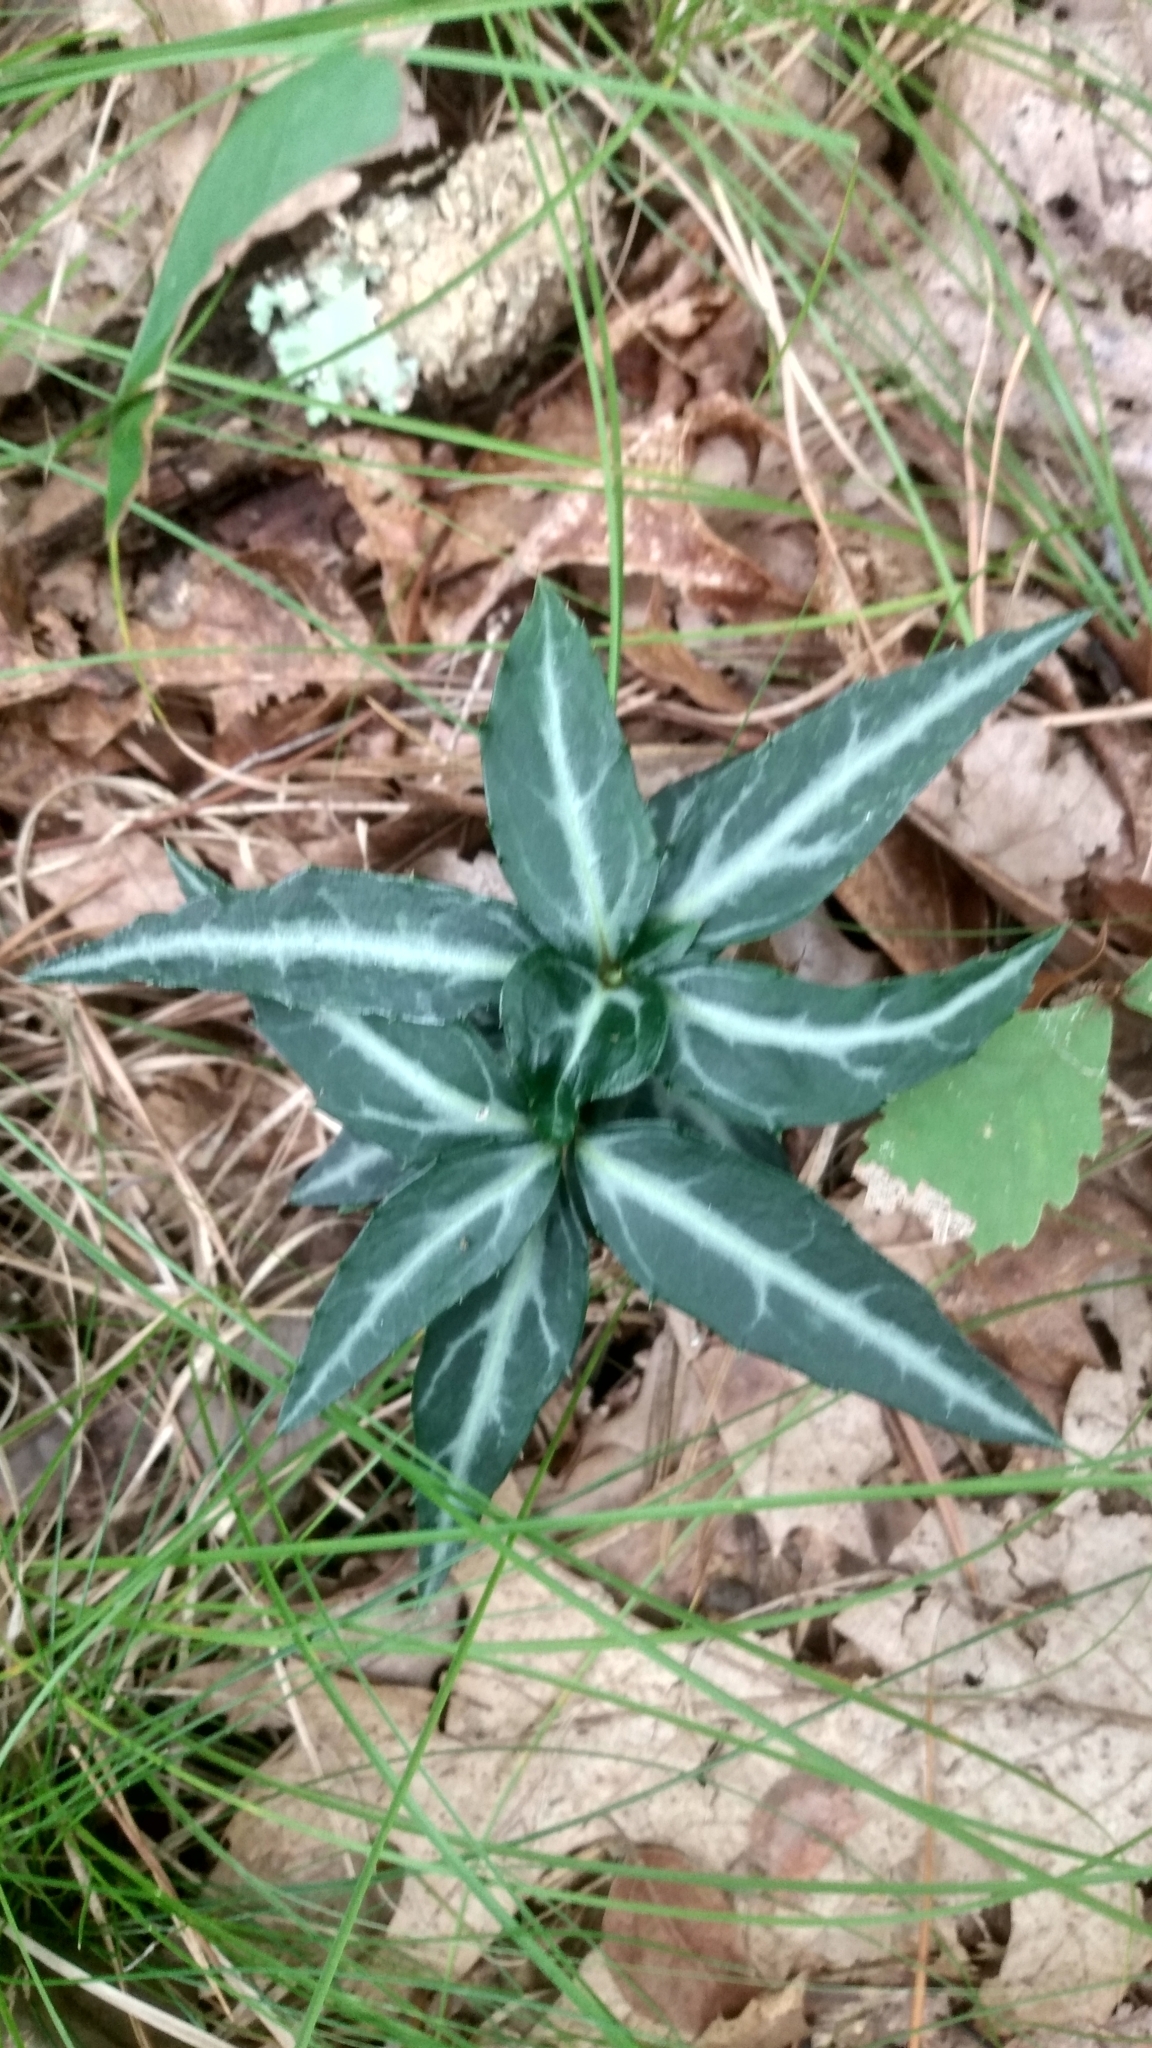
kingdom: Plantae
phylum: Tracheophyta
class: Magnoliopsida
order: Ericales
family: Ericaceae
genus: Chimaphila
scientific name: Chimaphila maculata
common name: Spotted pipsissewa
